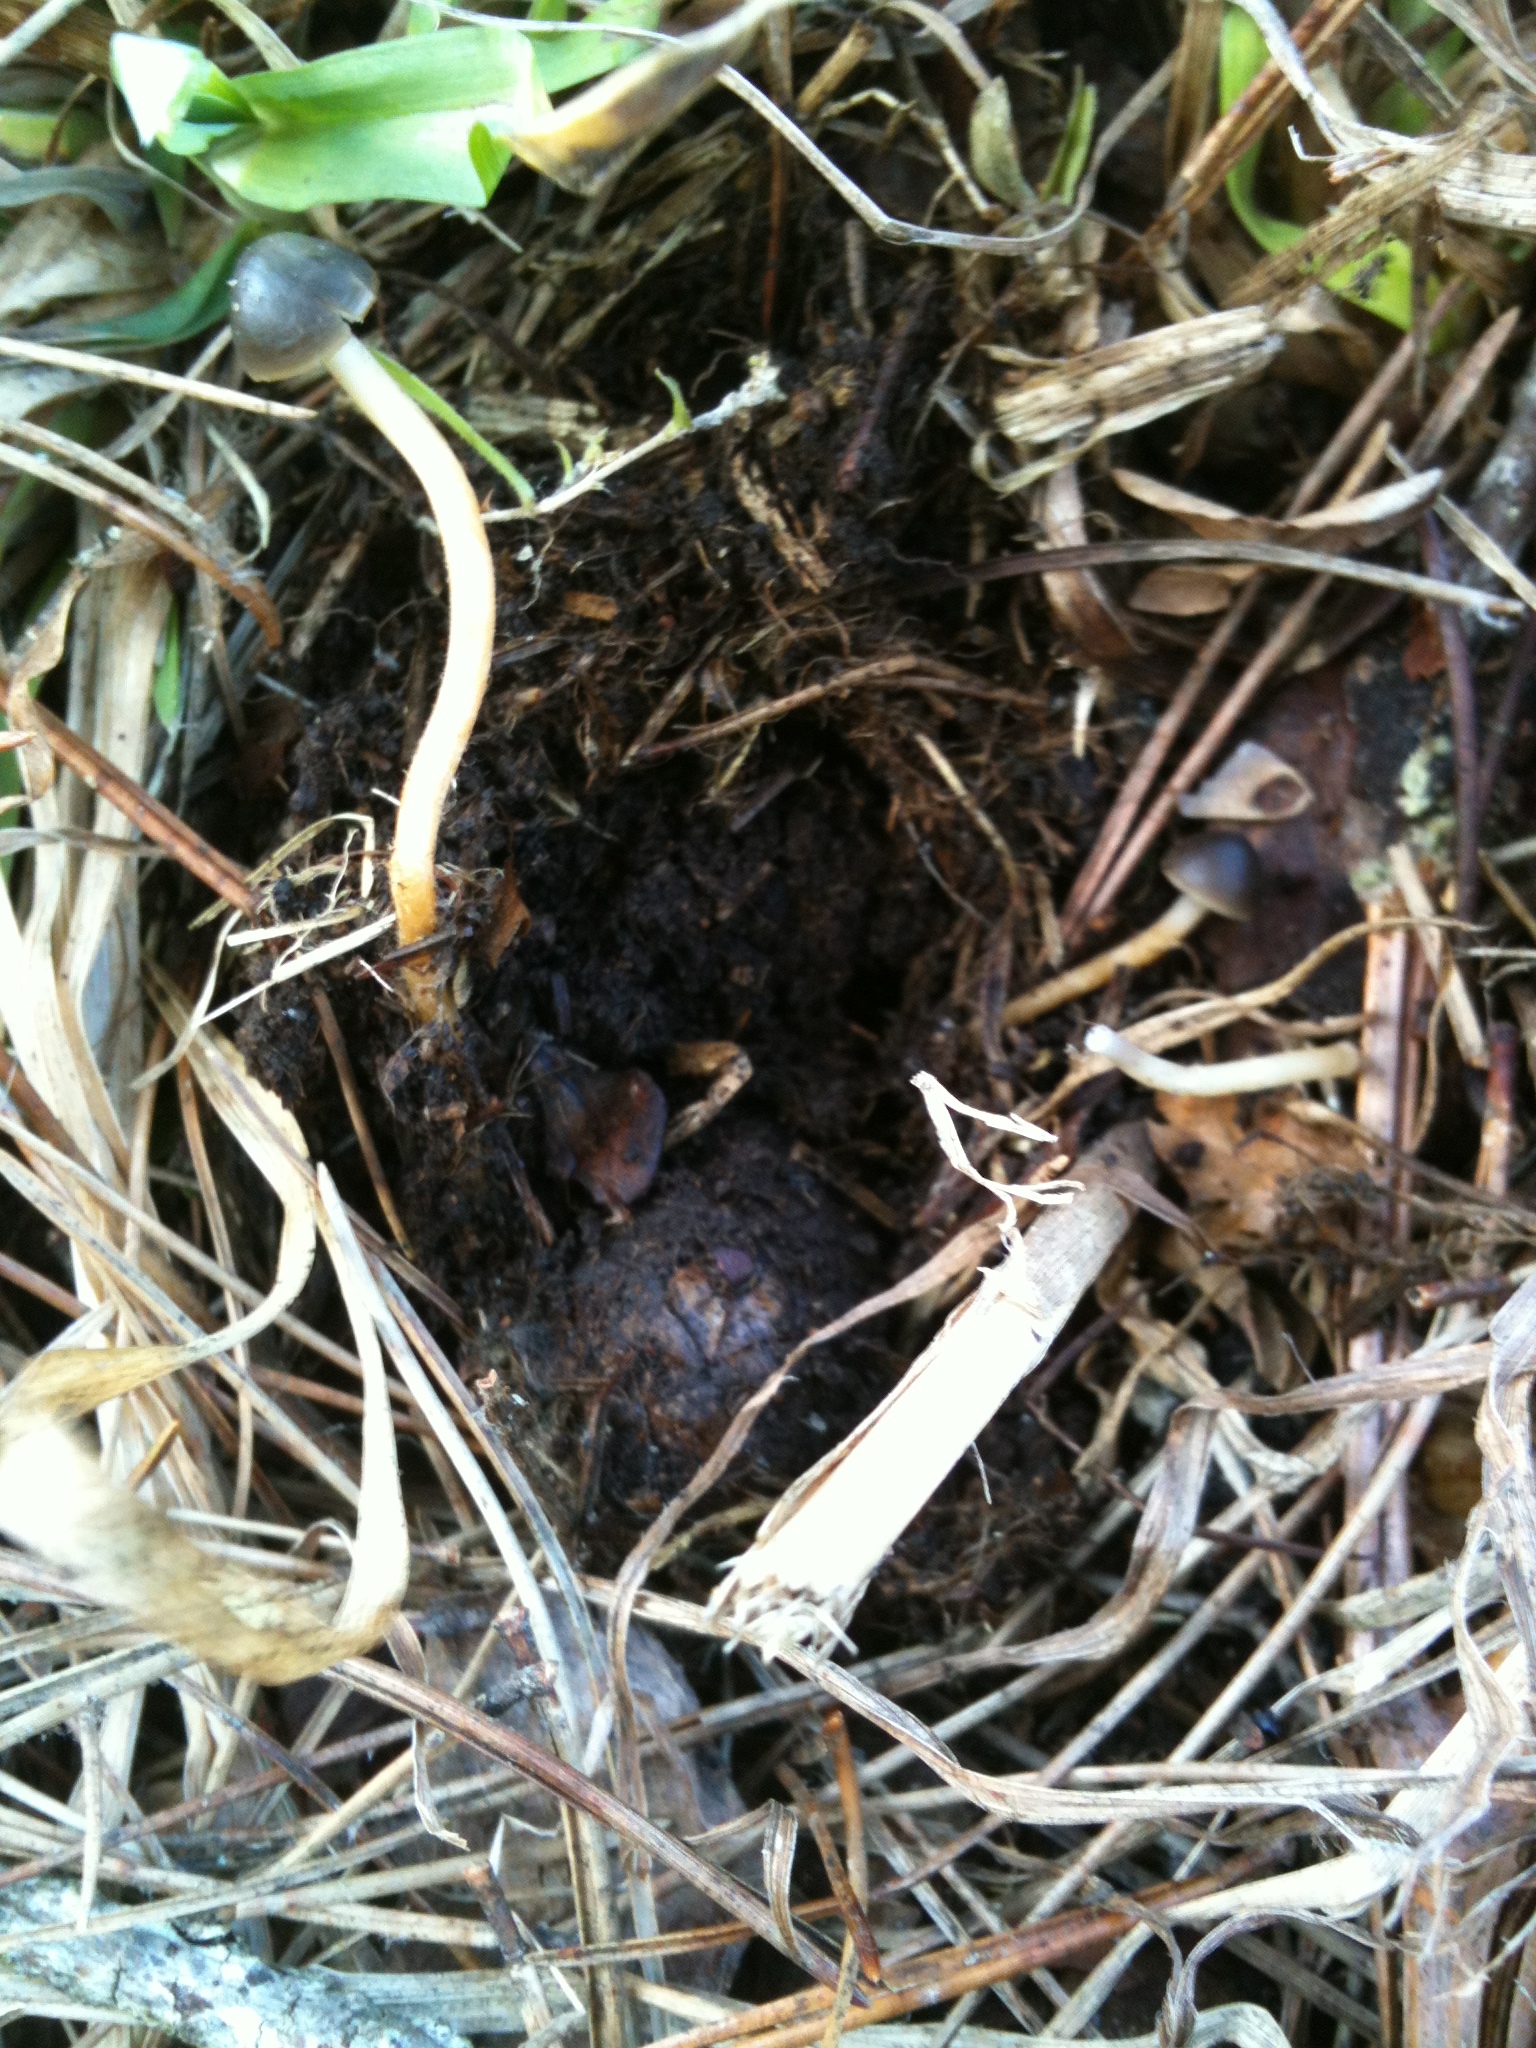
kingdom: Fungi
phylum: Basidiomycota
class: Agaricomycetes
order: Agaricales
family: Physalacriaceae
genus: Strobilurus
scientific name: Strobilurus stephanocystis
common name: Russian conecap
